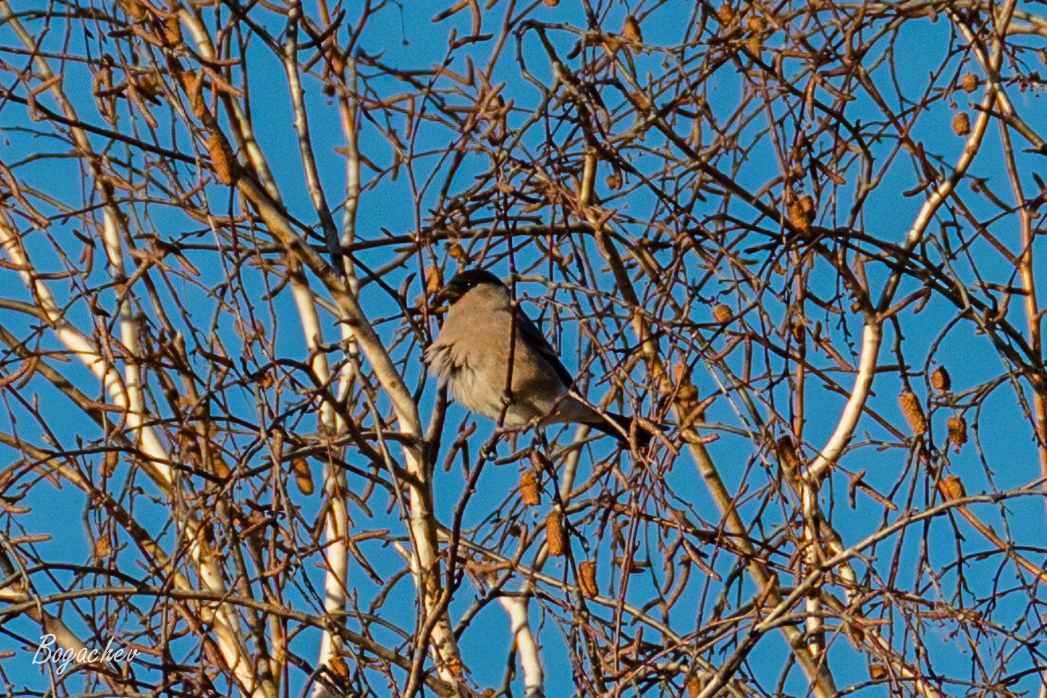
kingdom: Animalia
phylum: Chordata
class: Aves
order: Passeriformes
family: Fringillidae
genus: Pyrrhula
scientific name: Pyrrhula pyrrhula
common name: Eurasian bullfinch
